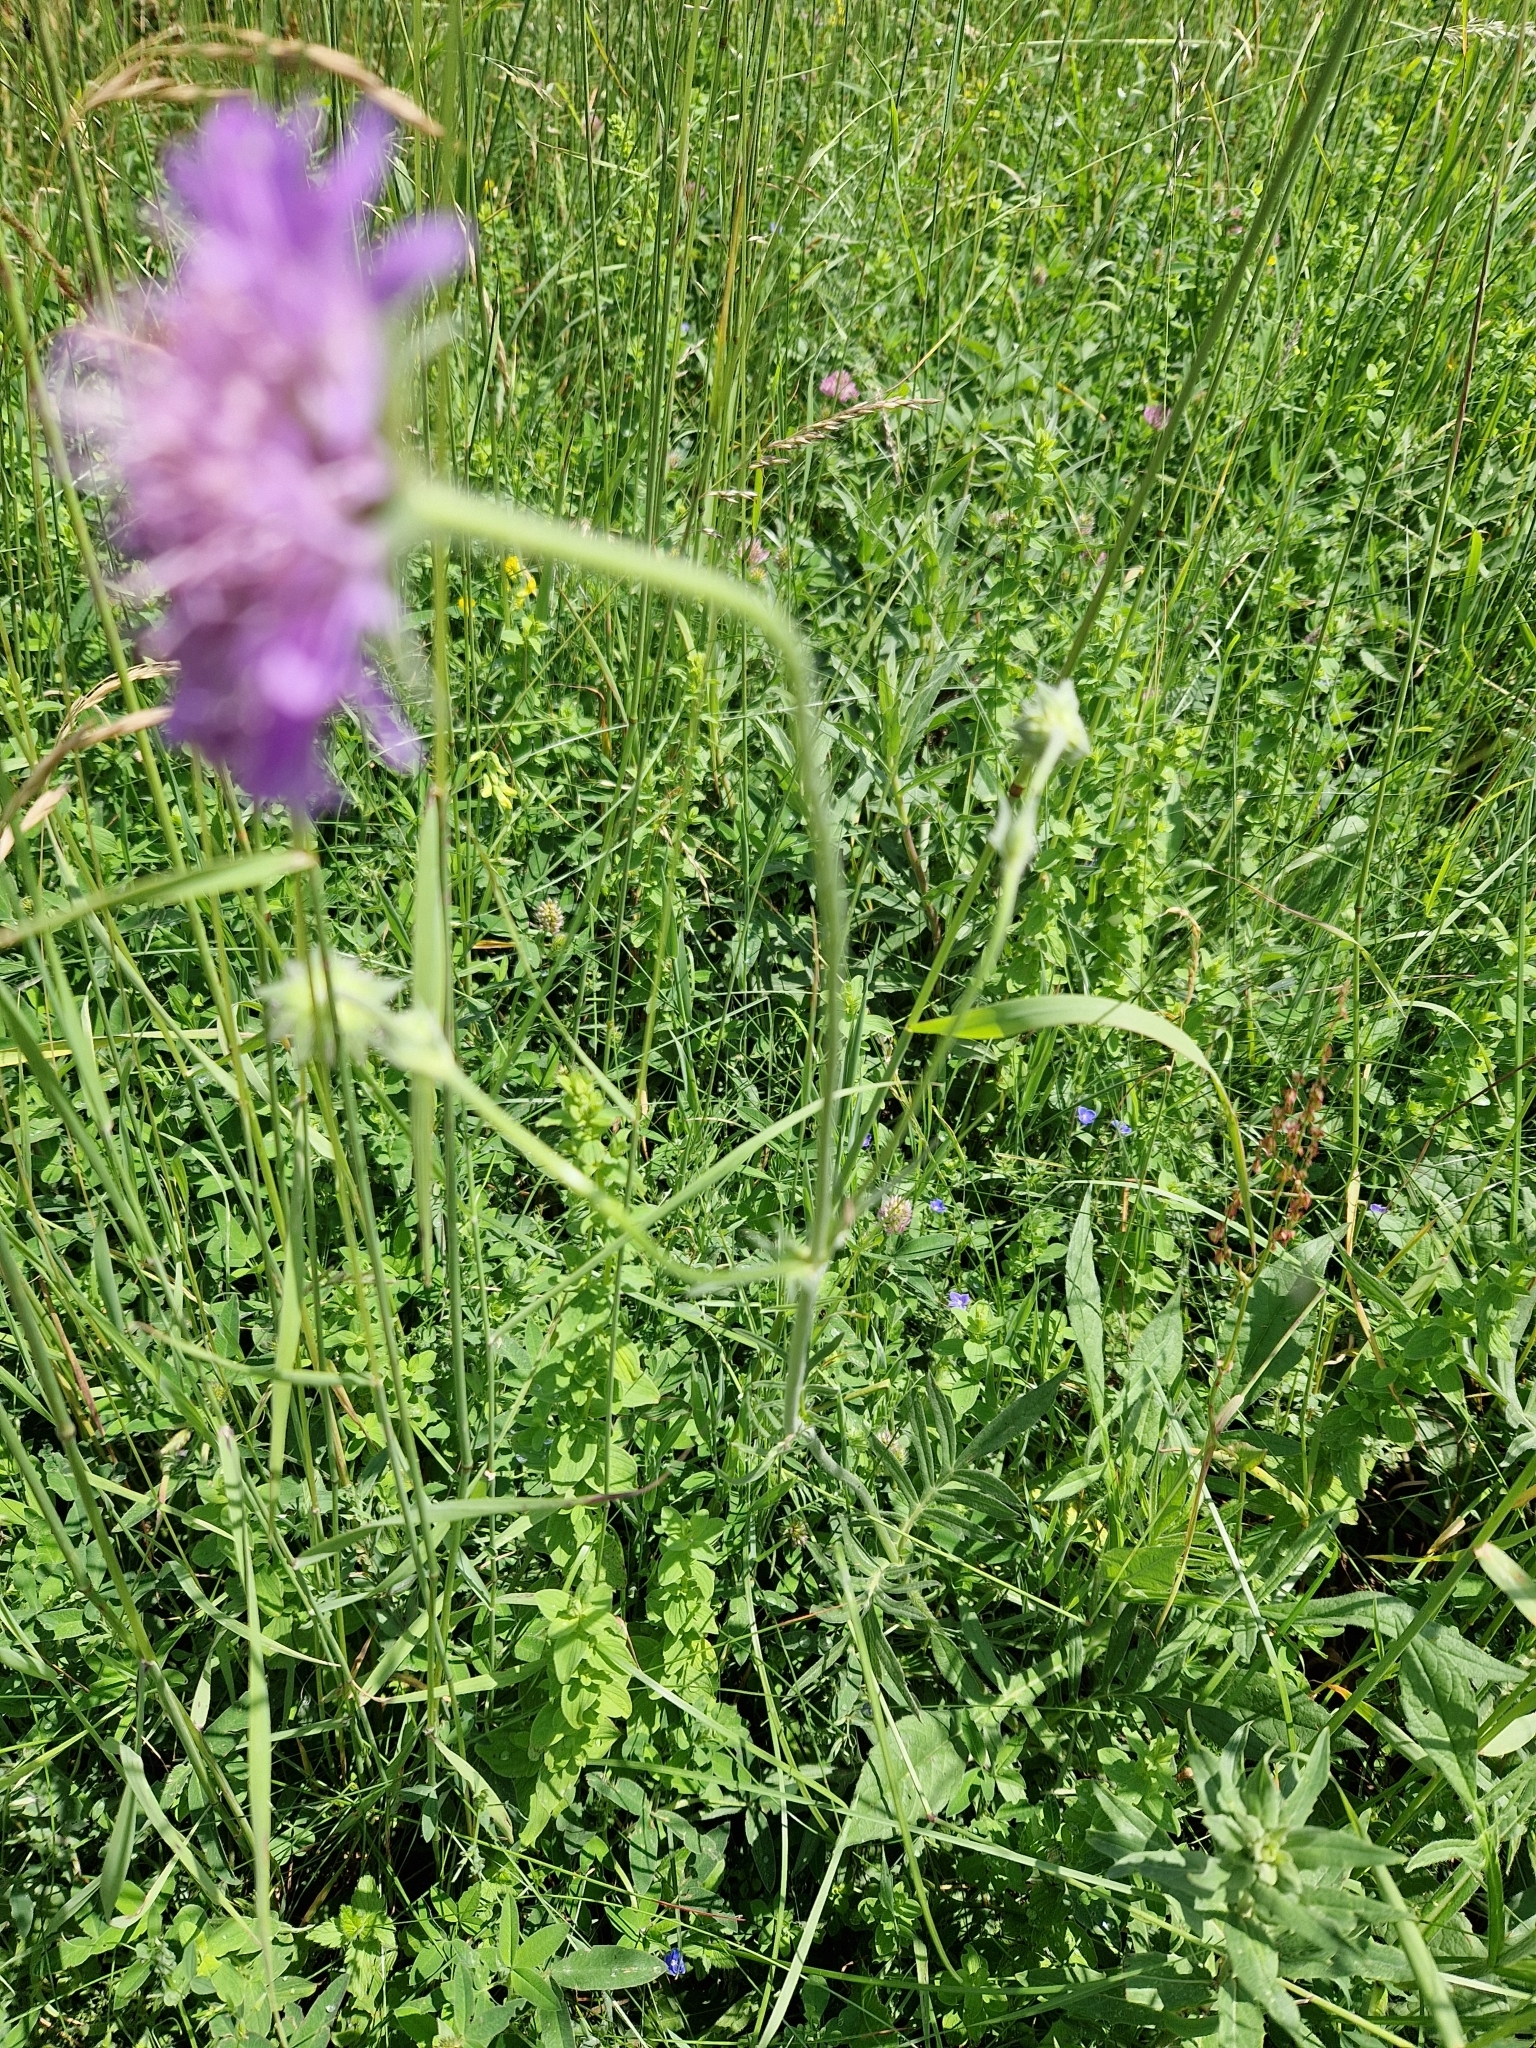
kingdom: Plantae
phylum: Tracheophyta
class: Magnoliopsida
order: Dipsacales
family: Caprifoliaceae
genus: Knautia
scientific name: Knautia arvensis
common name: Field scabiosa
